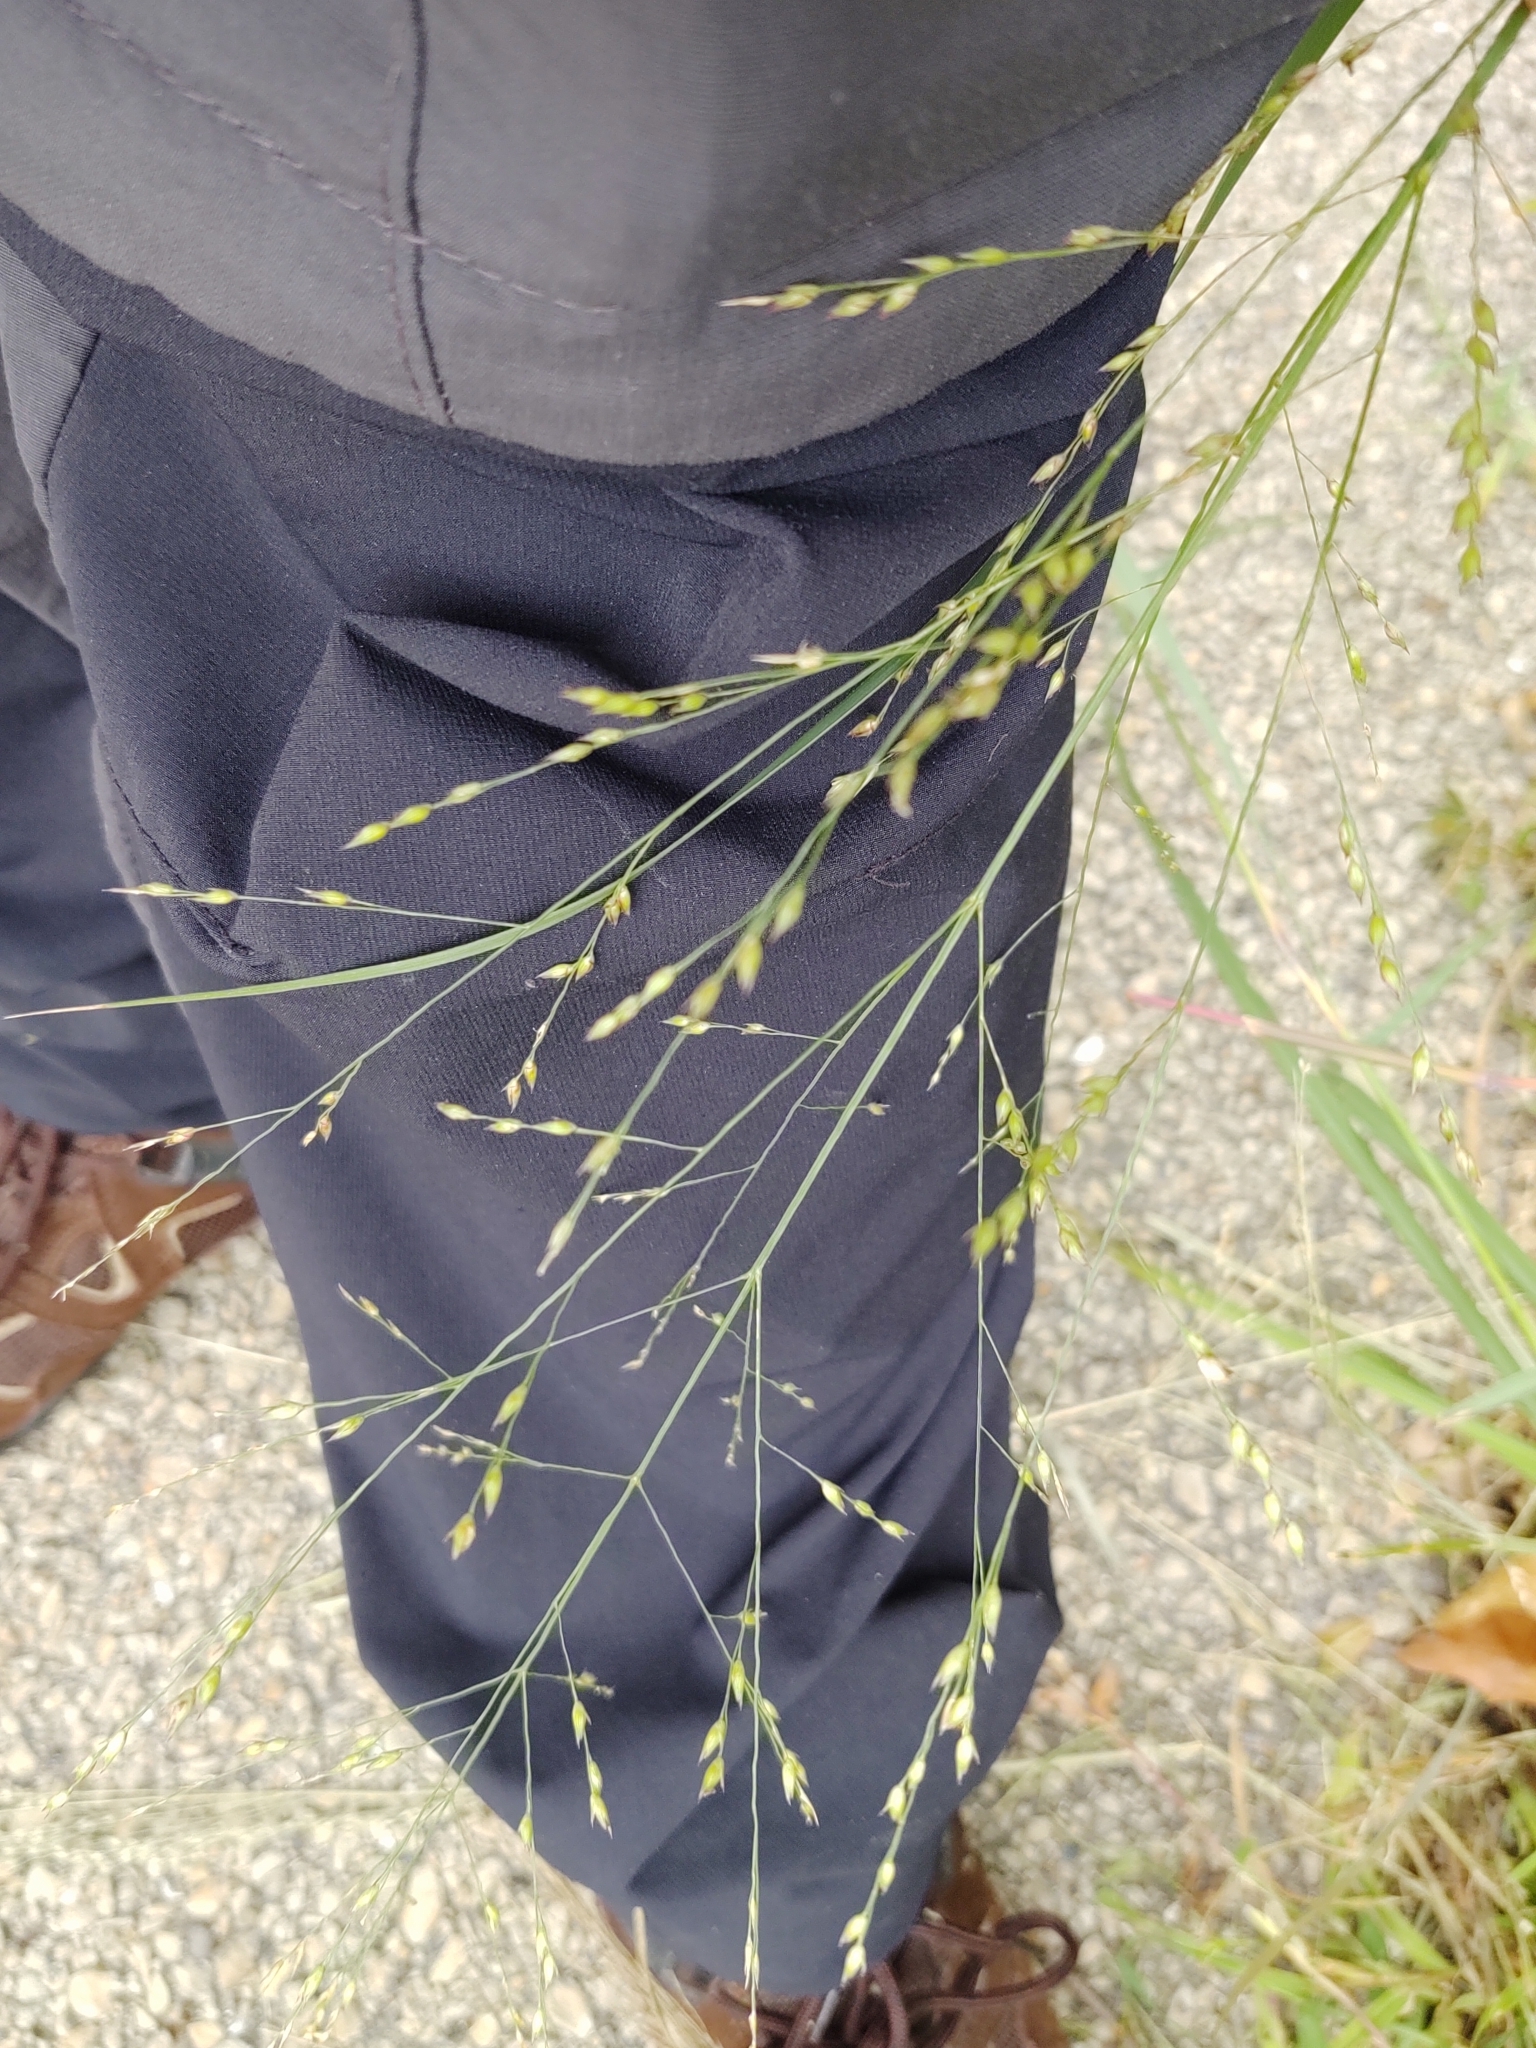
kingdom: Plantae
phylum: Tracheophyta
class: Liliopsida
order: Poales
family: Poaceae
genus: Panicum
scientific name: Panicum virgatum
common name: Switchgrass
